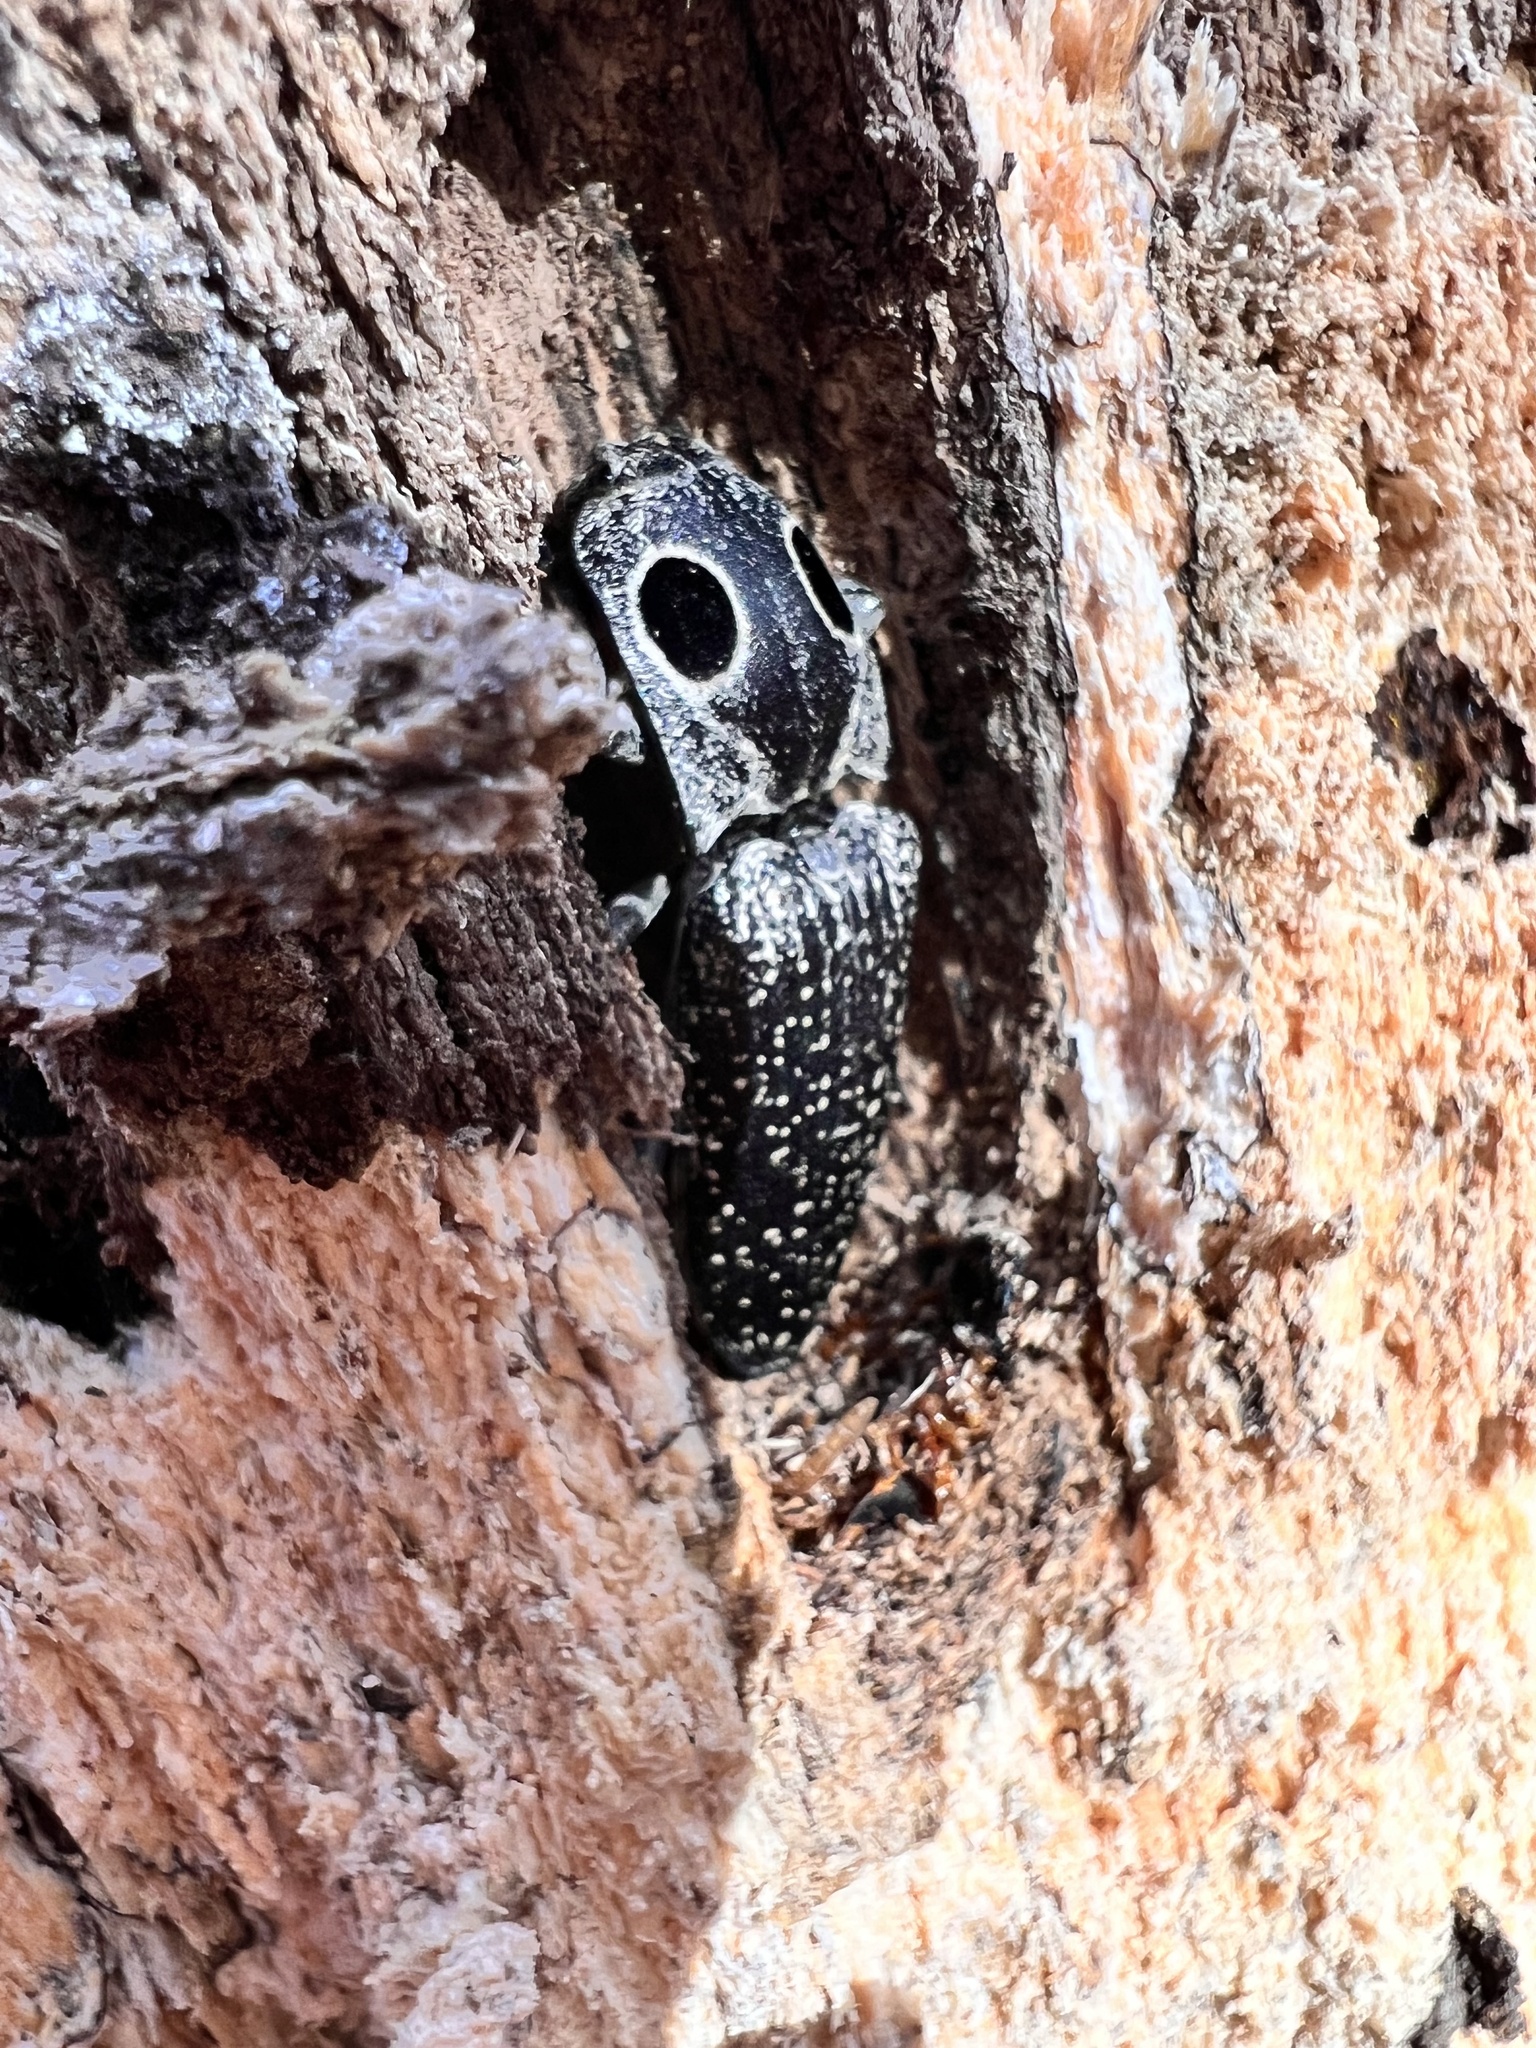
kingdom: Animalia
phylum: Arthropoda
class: Insecta
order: Coleoptera
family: Elateridae
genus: Alaus
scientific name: Alaus oculatus
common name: Eastern eyed click beetle
